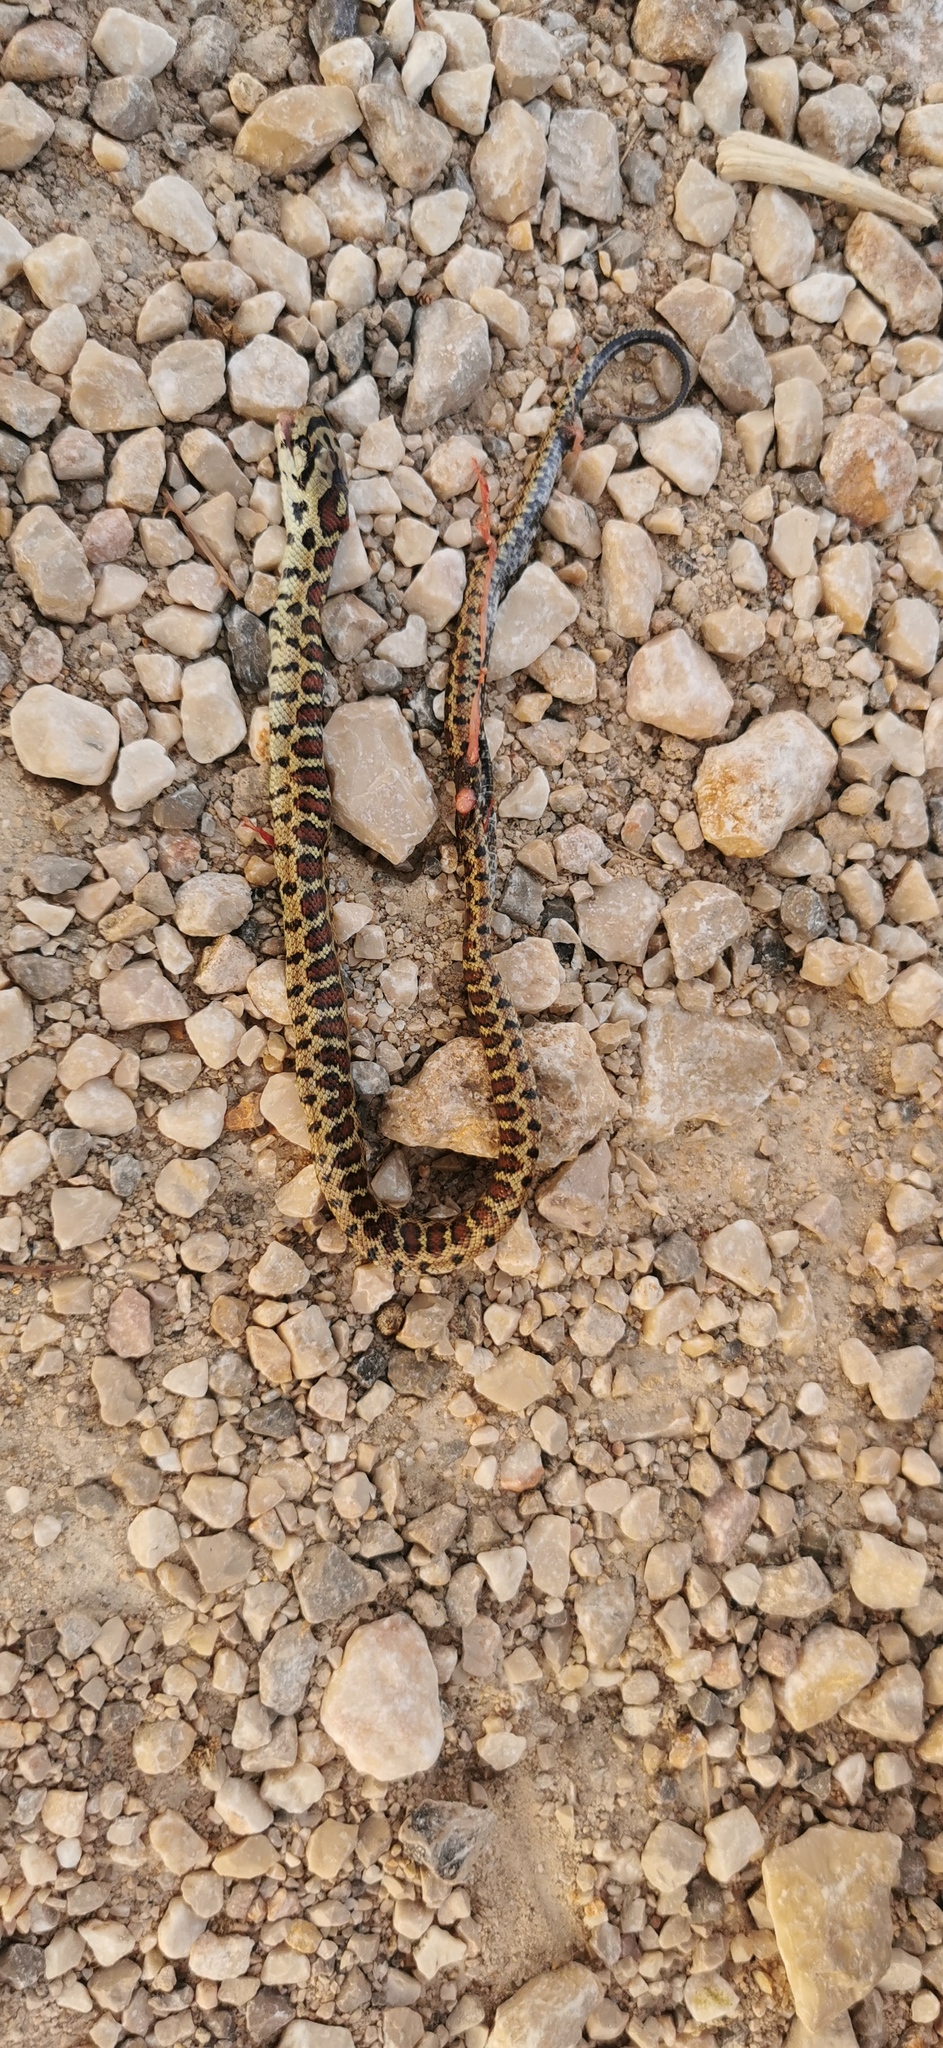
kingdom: Animalia
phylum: Chordata
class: Squamata
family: Colubridae
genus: Zamenis
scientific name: Zamenis situla
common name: European ratsnake
